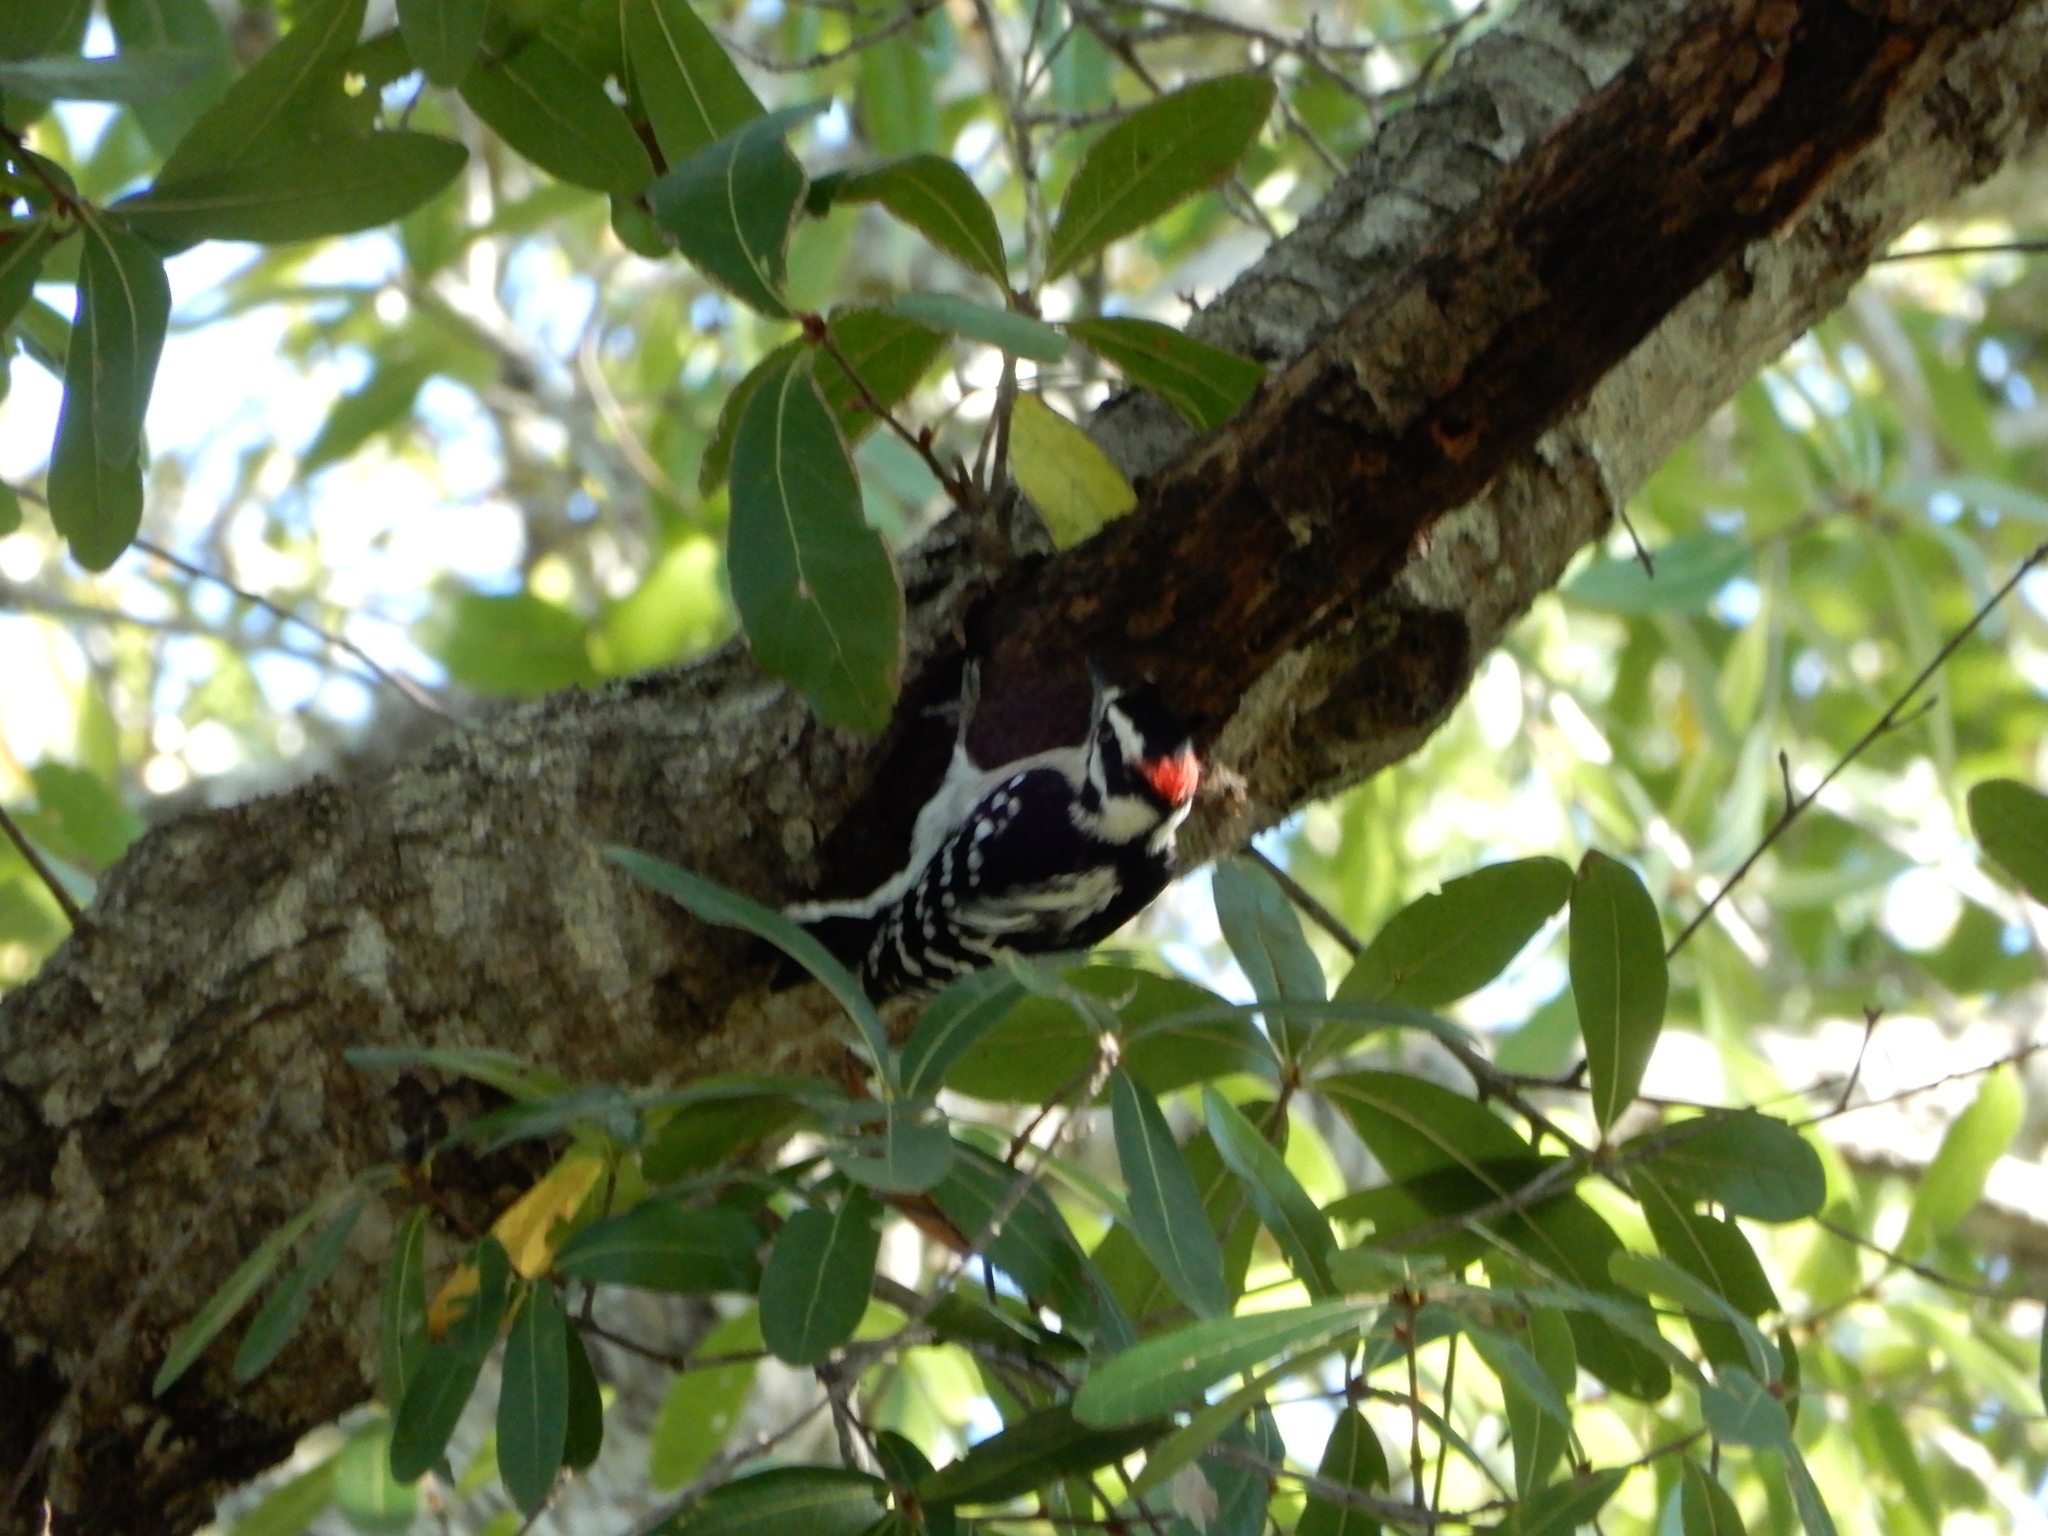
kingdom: Animalia
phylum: Chordata
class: Aves
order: Piciformes
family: Picidae
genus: Dryobates
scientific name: Dryobates pubescens
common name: Downy woodpecker
